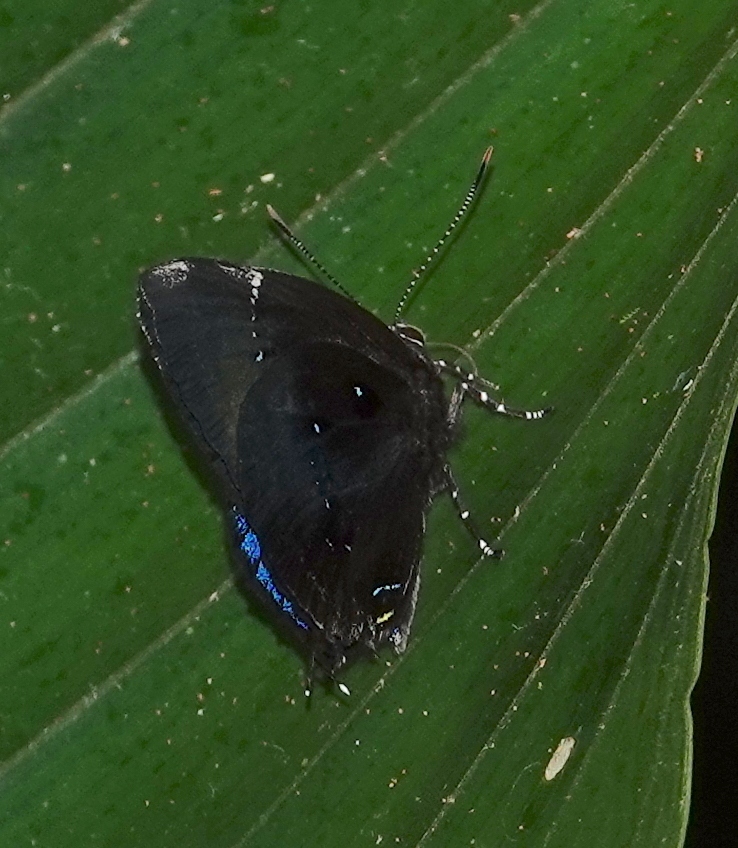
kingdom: Animalia
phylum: Arthropoda
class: Insecta
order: Lepidoptera
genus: Paraspiculatus
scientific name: Paraspiculatus
